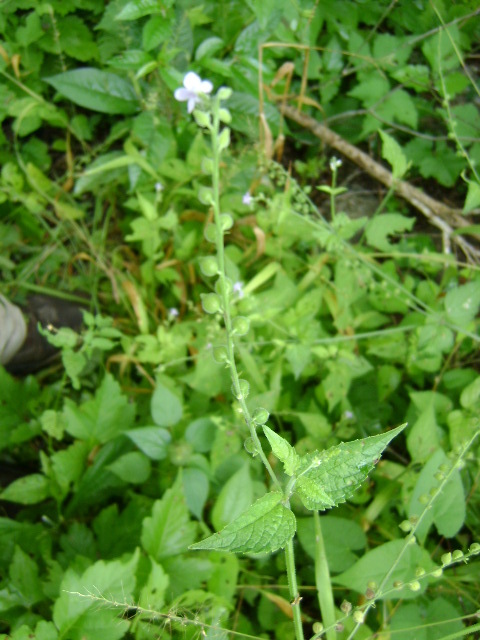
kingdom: Plantae
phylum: Tracheophyta
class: Magnoliopsida
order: Lamiales
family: Verbenaceae
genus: Priva
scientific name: Priva lappulacea
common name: Fasten-'pon-coat
